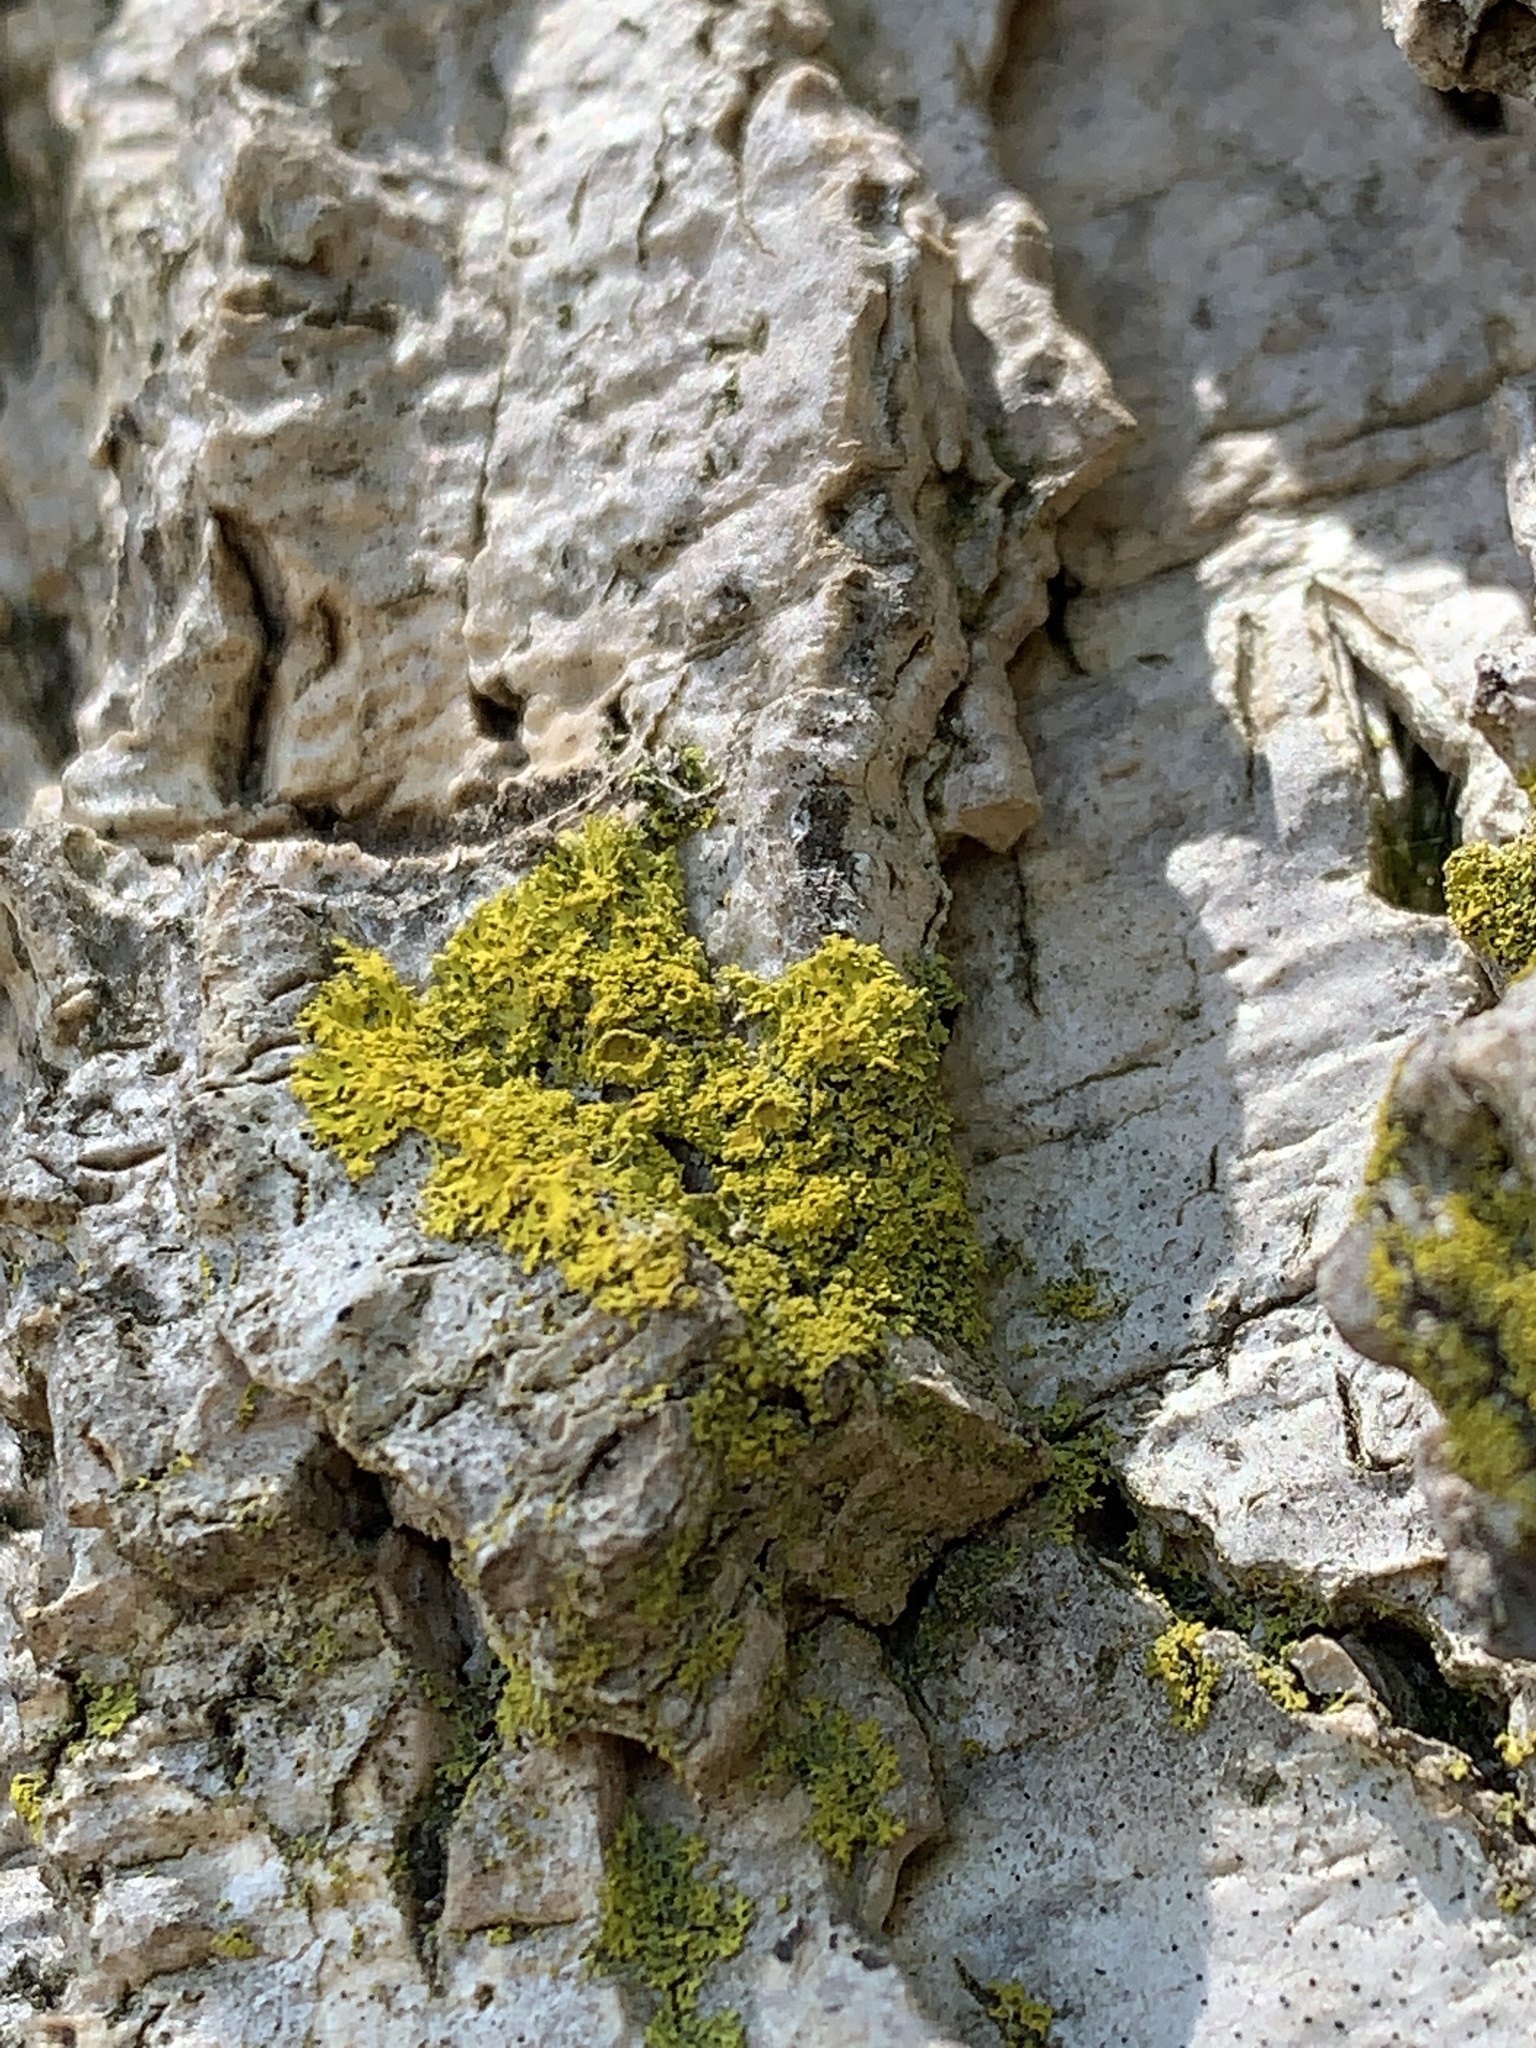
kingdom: Fungi
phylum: Ascomycota
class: Candelariomycetes
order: Candelariales
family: Candelariaceae
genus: Candelaria
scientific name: Candelaria concolor
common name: Candleflame lichen
